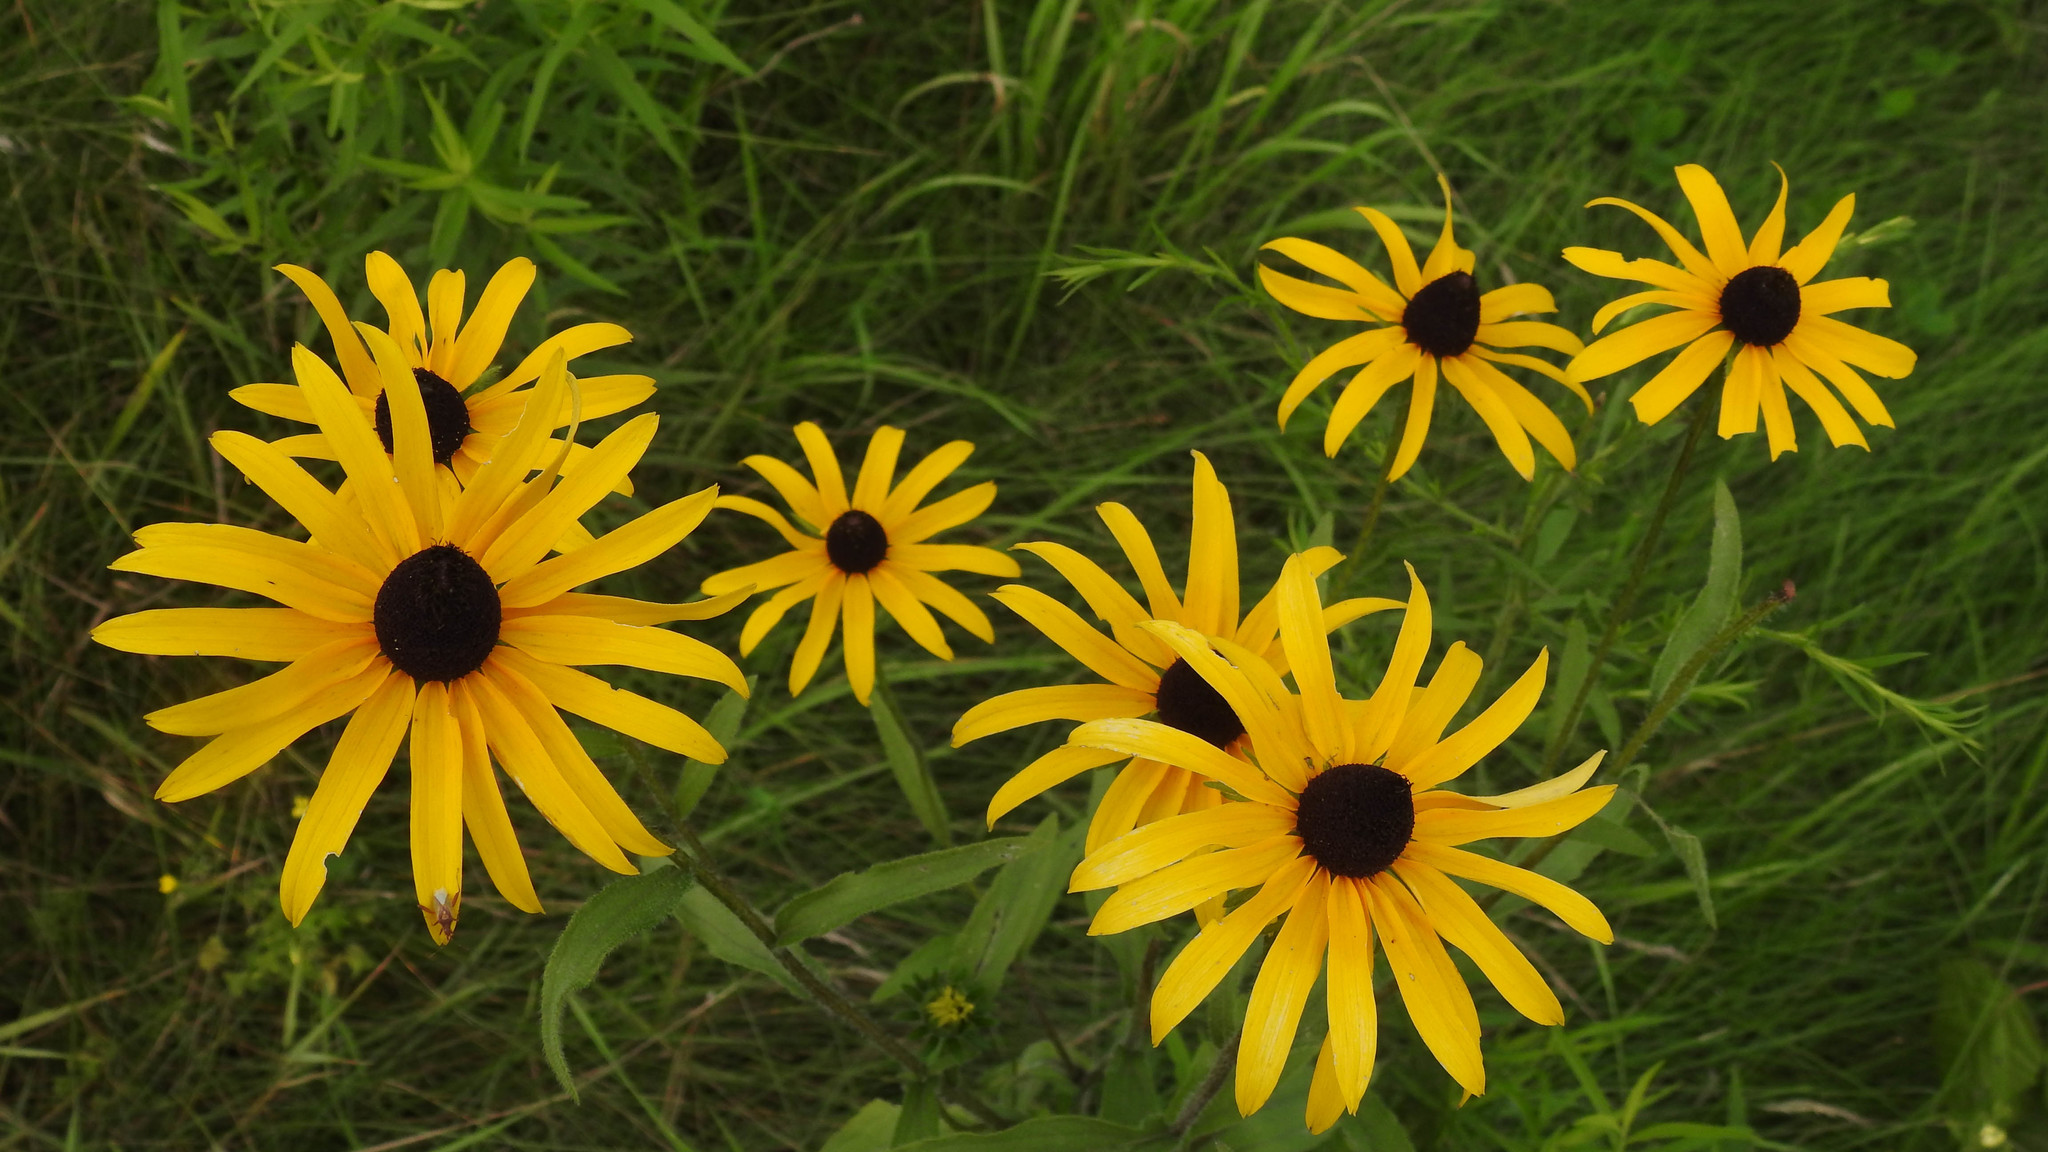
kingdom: Plantae
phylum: Tracheophyta
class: Magnoliopsida
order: Asterales
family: Asteraceae
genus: Rudbeckia
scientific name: Rudbeckia hirta
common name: Black-eyed-susan
